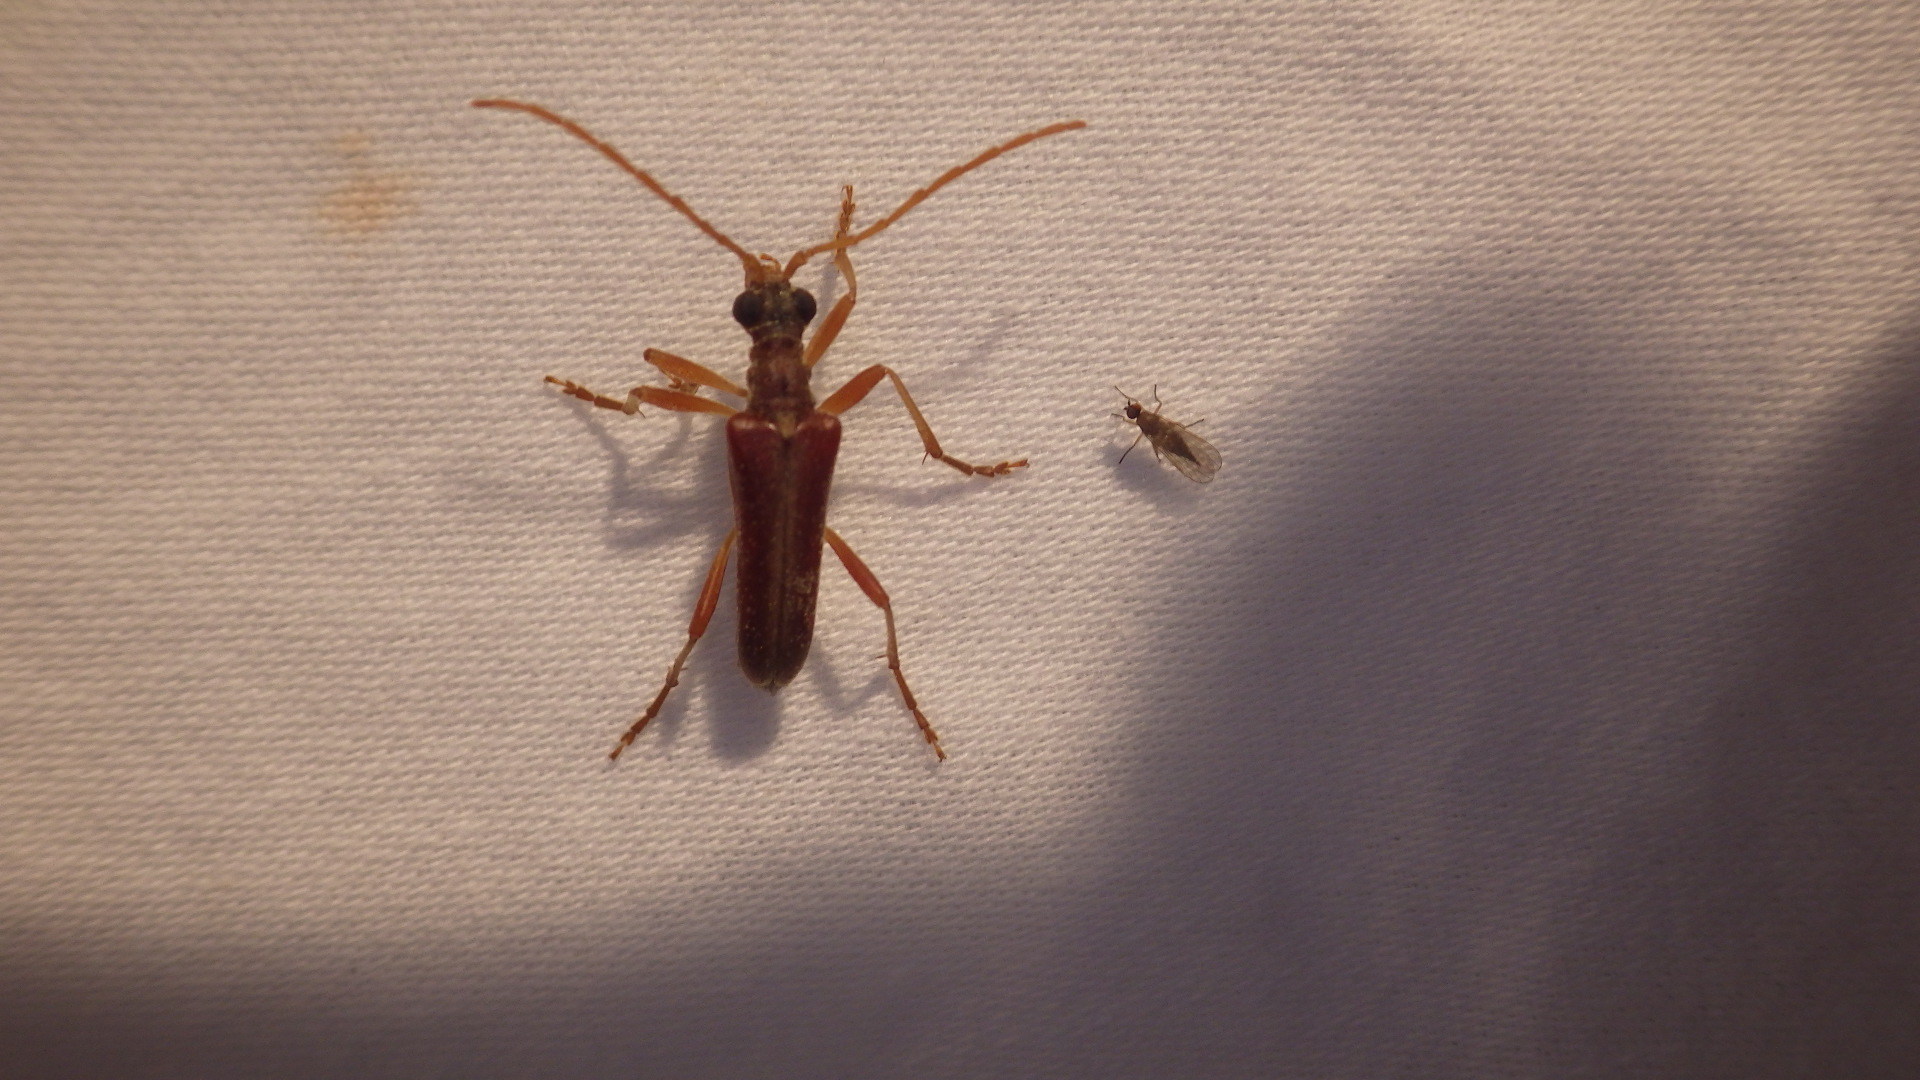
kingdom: Animalia
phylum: Arthropoda
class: Insecta
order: Coleoptera
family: Cerambycidae
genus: Stenocorus
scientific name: Stenocorus cinnamopterus
